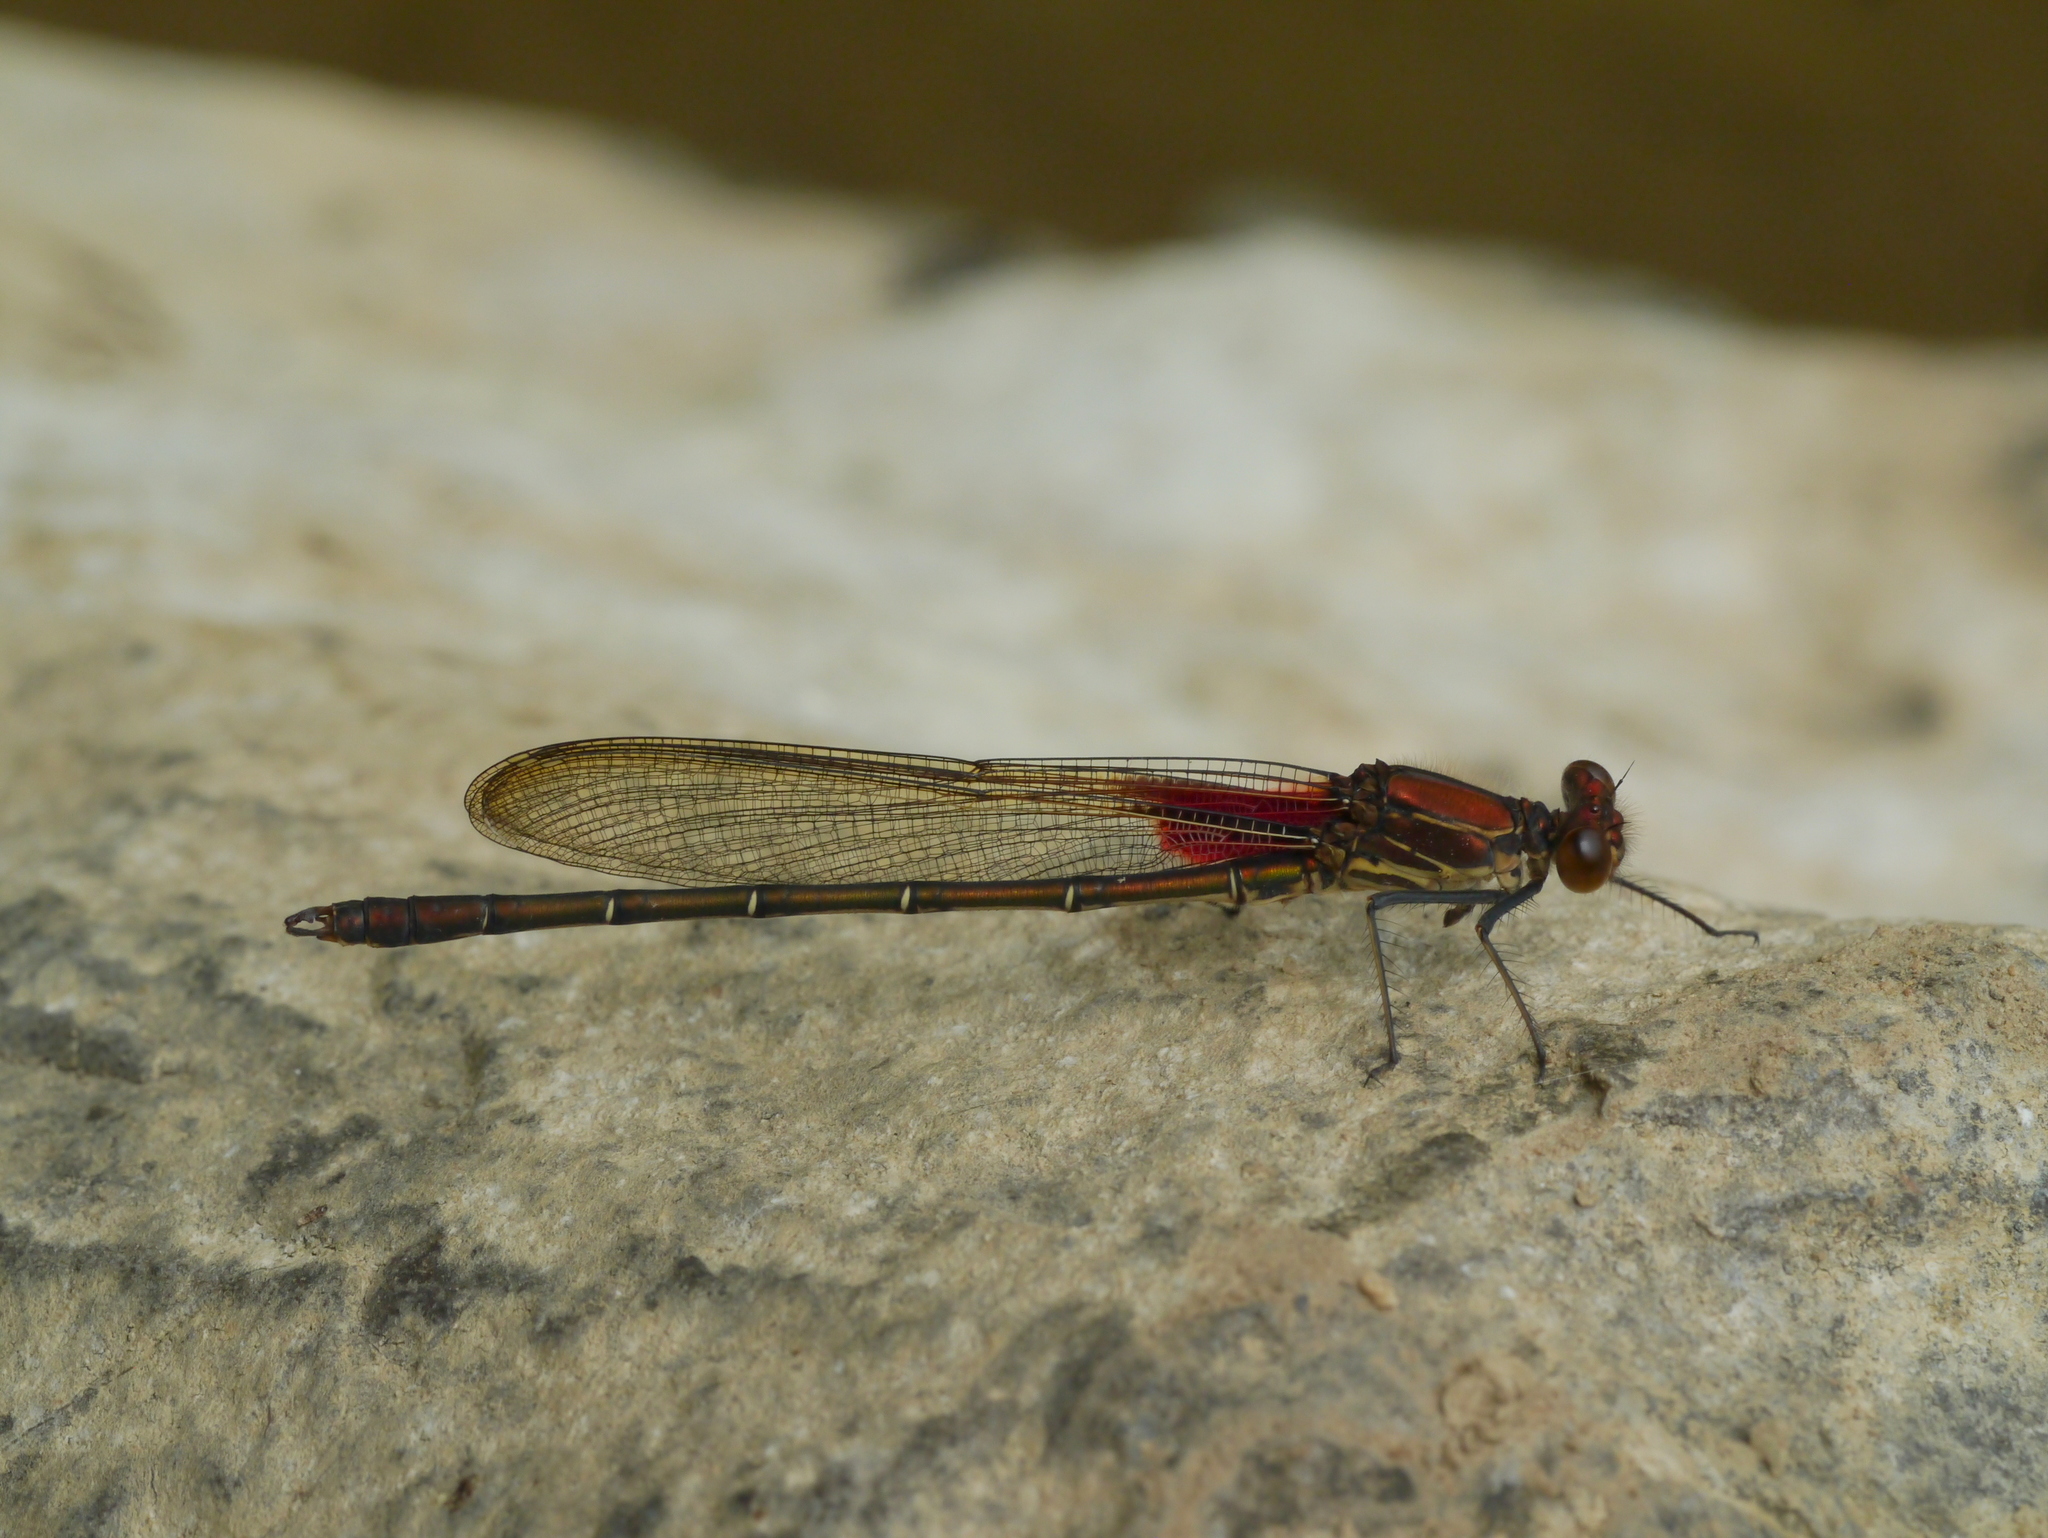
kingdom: Animalia
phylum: Arthropoda
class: Insecta
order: Odonata
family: Calopterygidae
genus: Hetaerina
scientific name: Hetaerina americana
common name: American rubyspot
